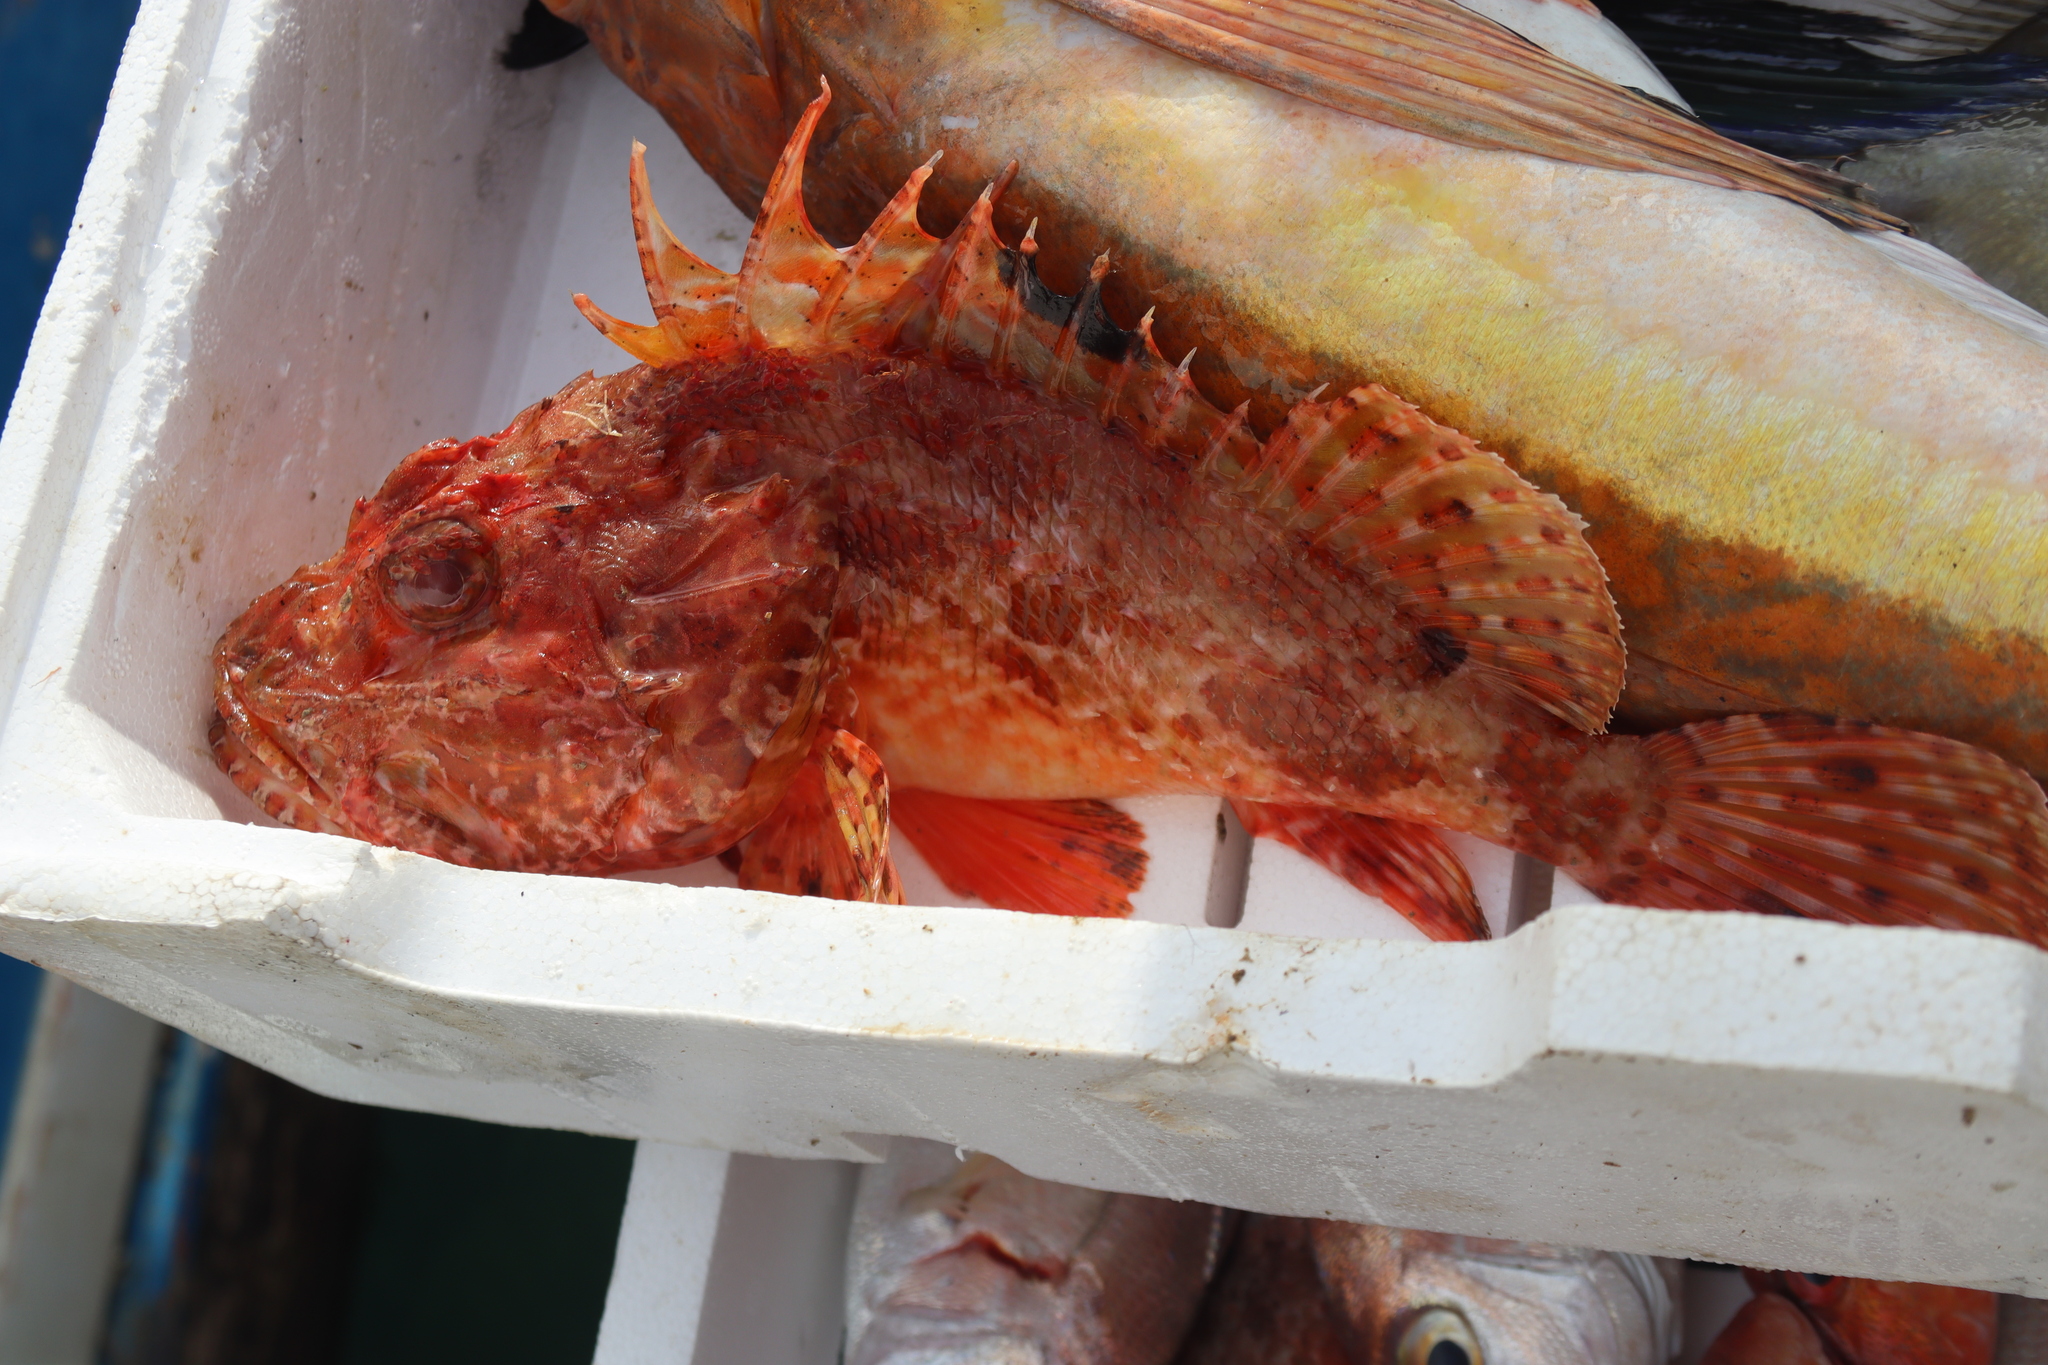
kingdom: Animalia
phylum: Chordata
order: Scorpaeniformes
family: Scorpaenidae
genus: Scorpaena
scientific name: Scorpaena scrofa
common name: Red scorpionfish
